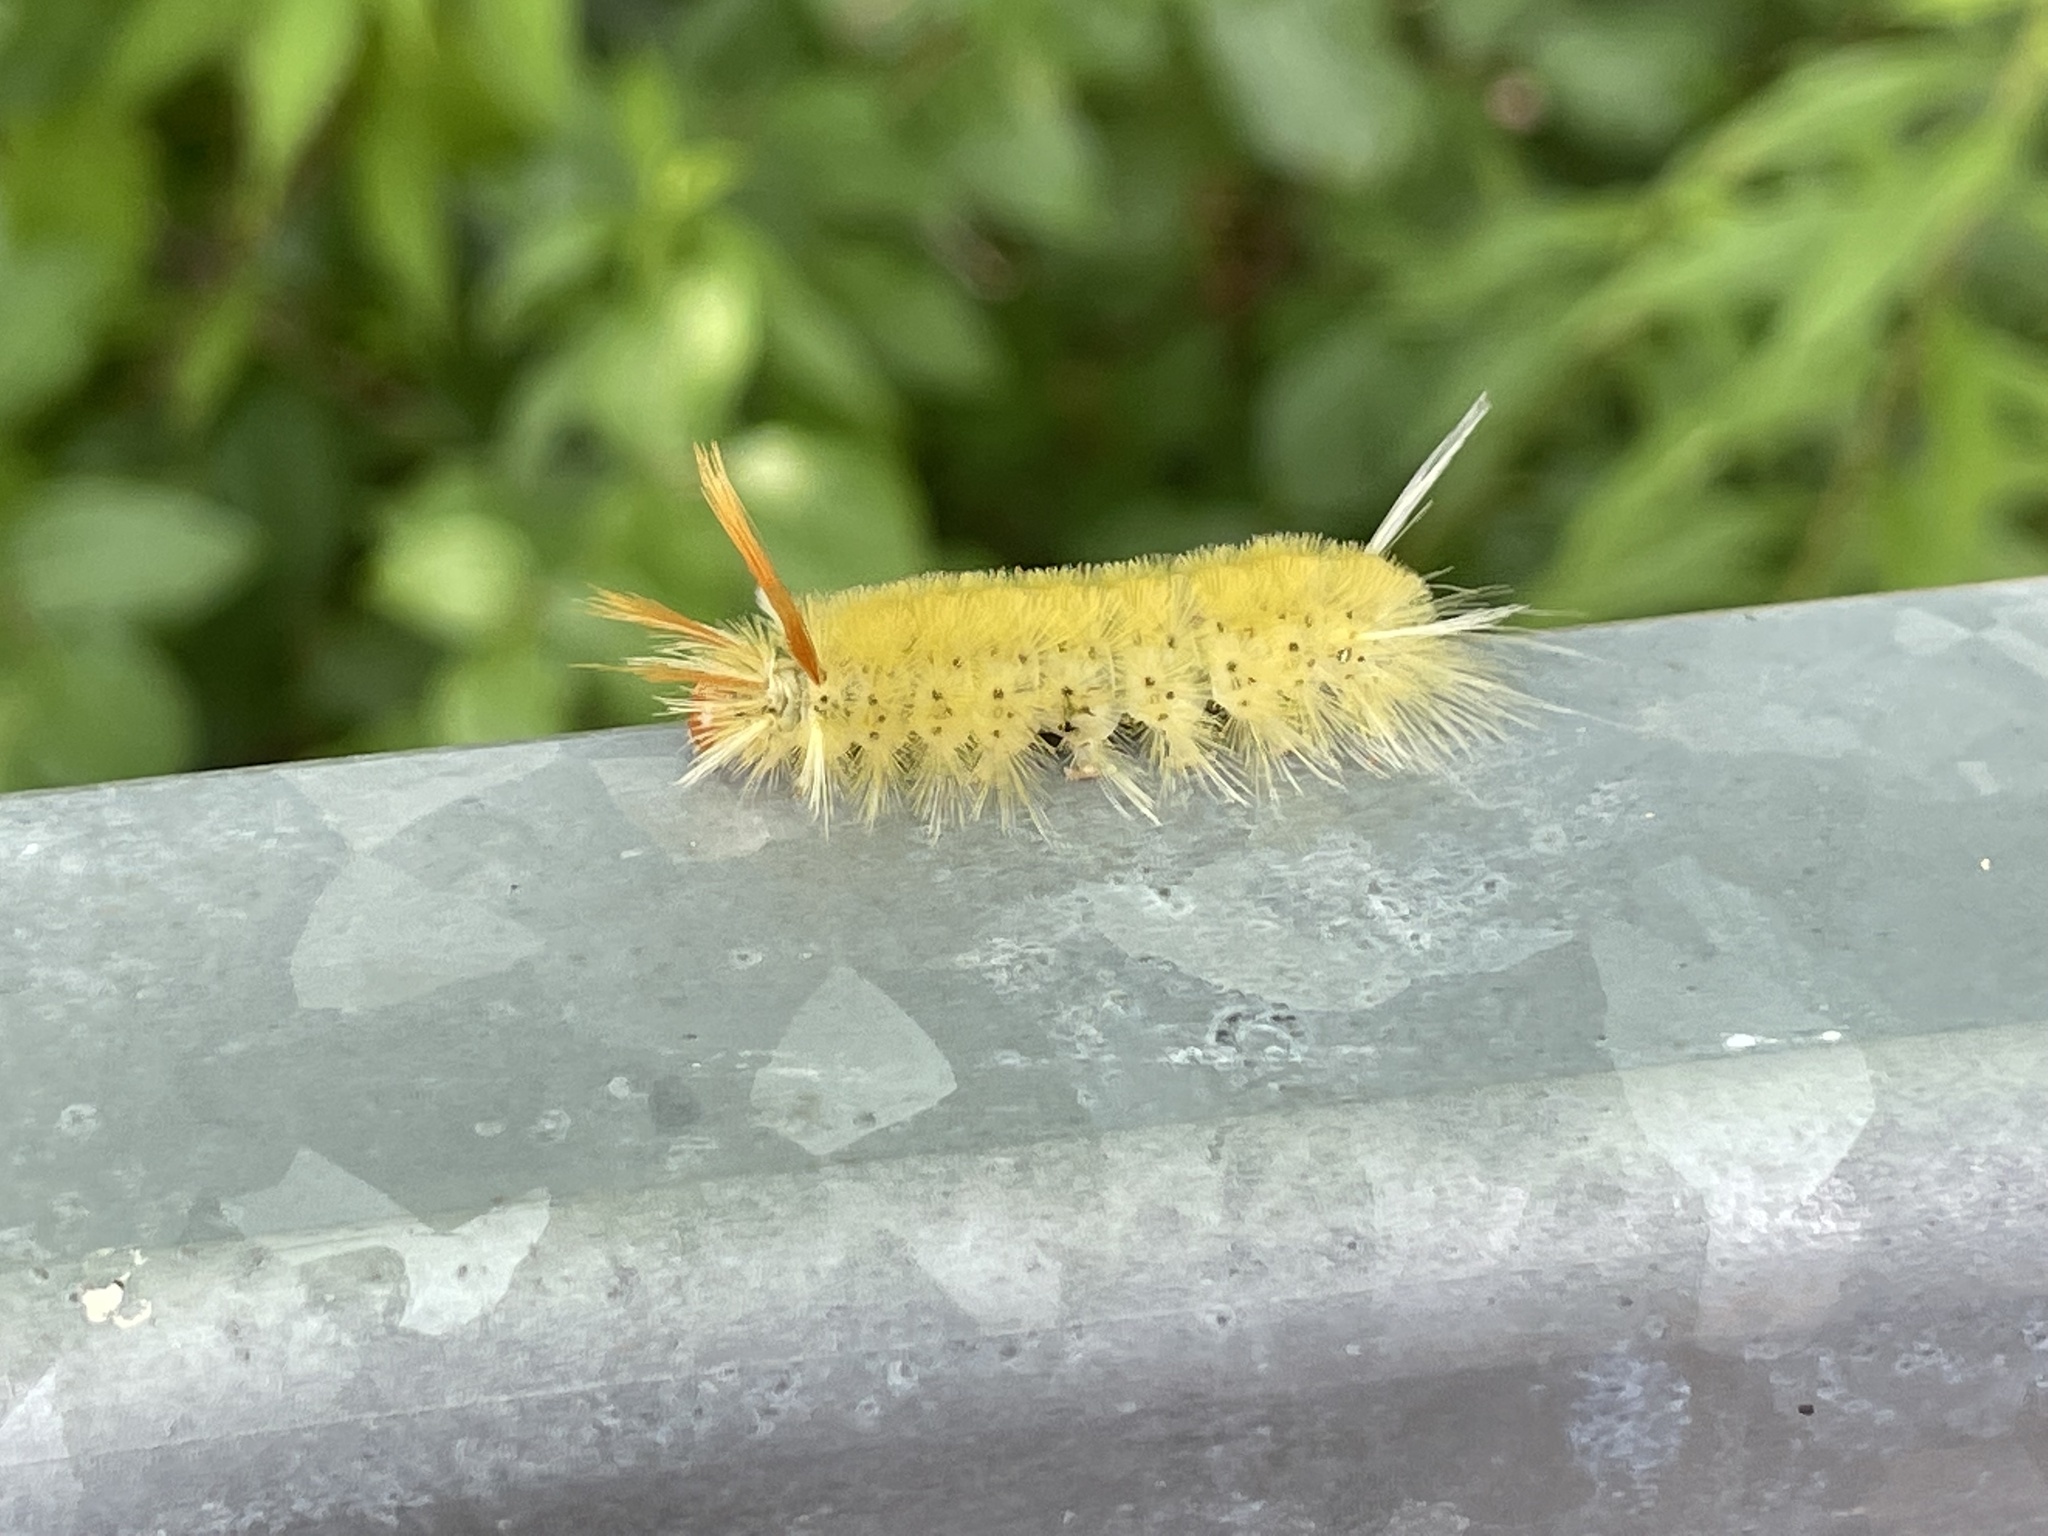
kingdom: Animalia
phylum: Arthropoda
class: Insecta
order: Lepidoptera
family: Erebidae
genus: Halysidota
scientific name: Halysidota harrisii
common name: Sycamore tussock moth
